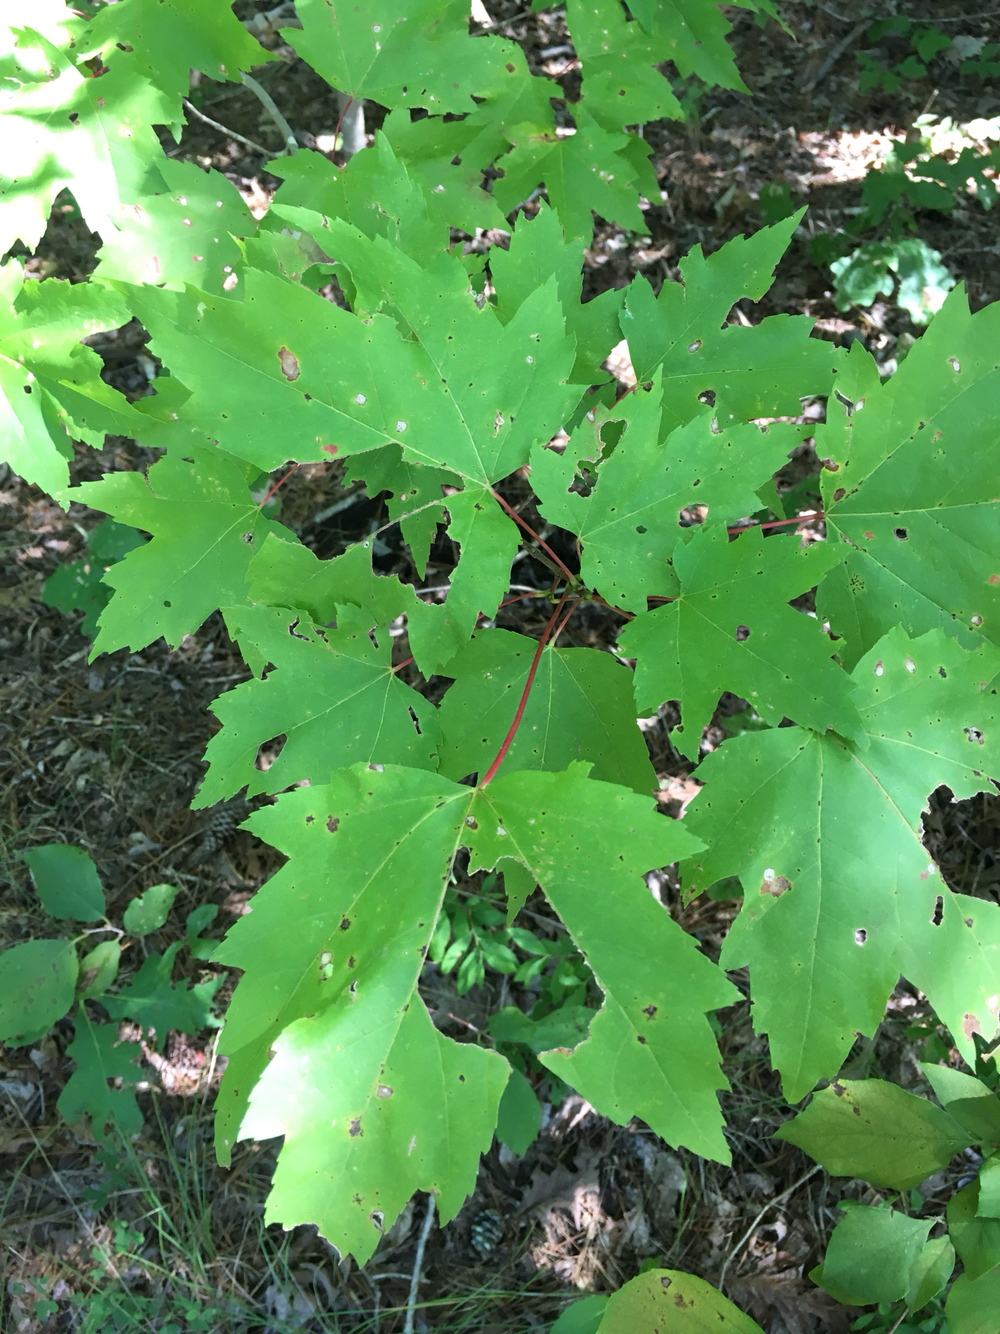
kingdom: Plantae
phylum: Tracheophyta
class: Magnoliopsida
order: Sapindales
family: Sapindaceae
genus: Acer
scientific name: Acer rubrum
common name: Red maple
